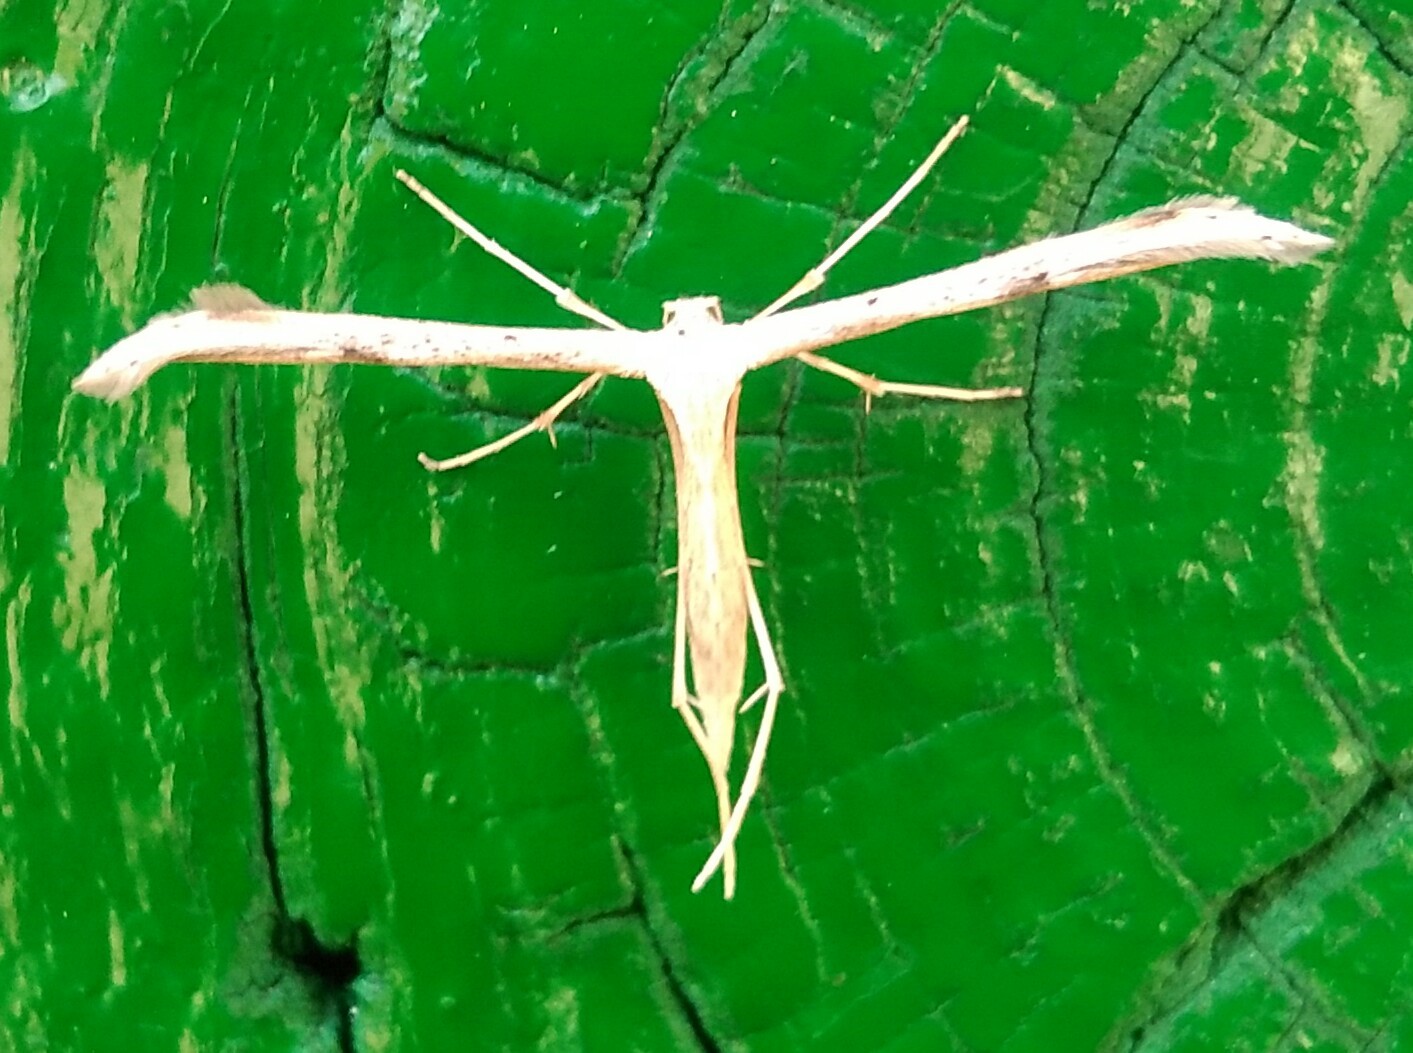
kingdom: Animalia
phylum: Arthropoda
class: Insecta
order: Lepidoptera
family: Pterophoridae
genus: Emmelina
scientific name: Emmelina monodactyla
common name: Common plume
